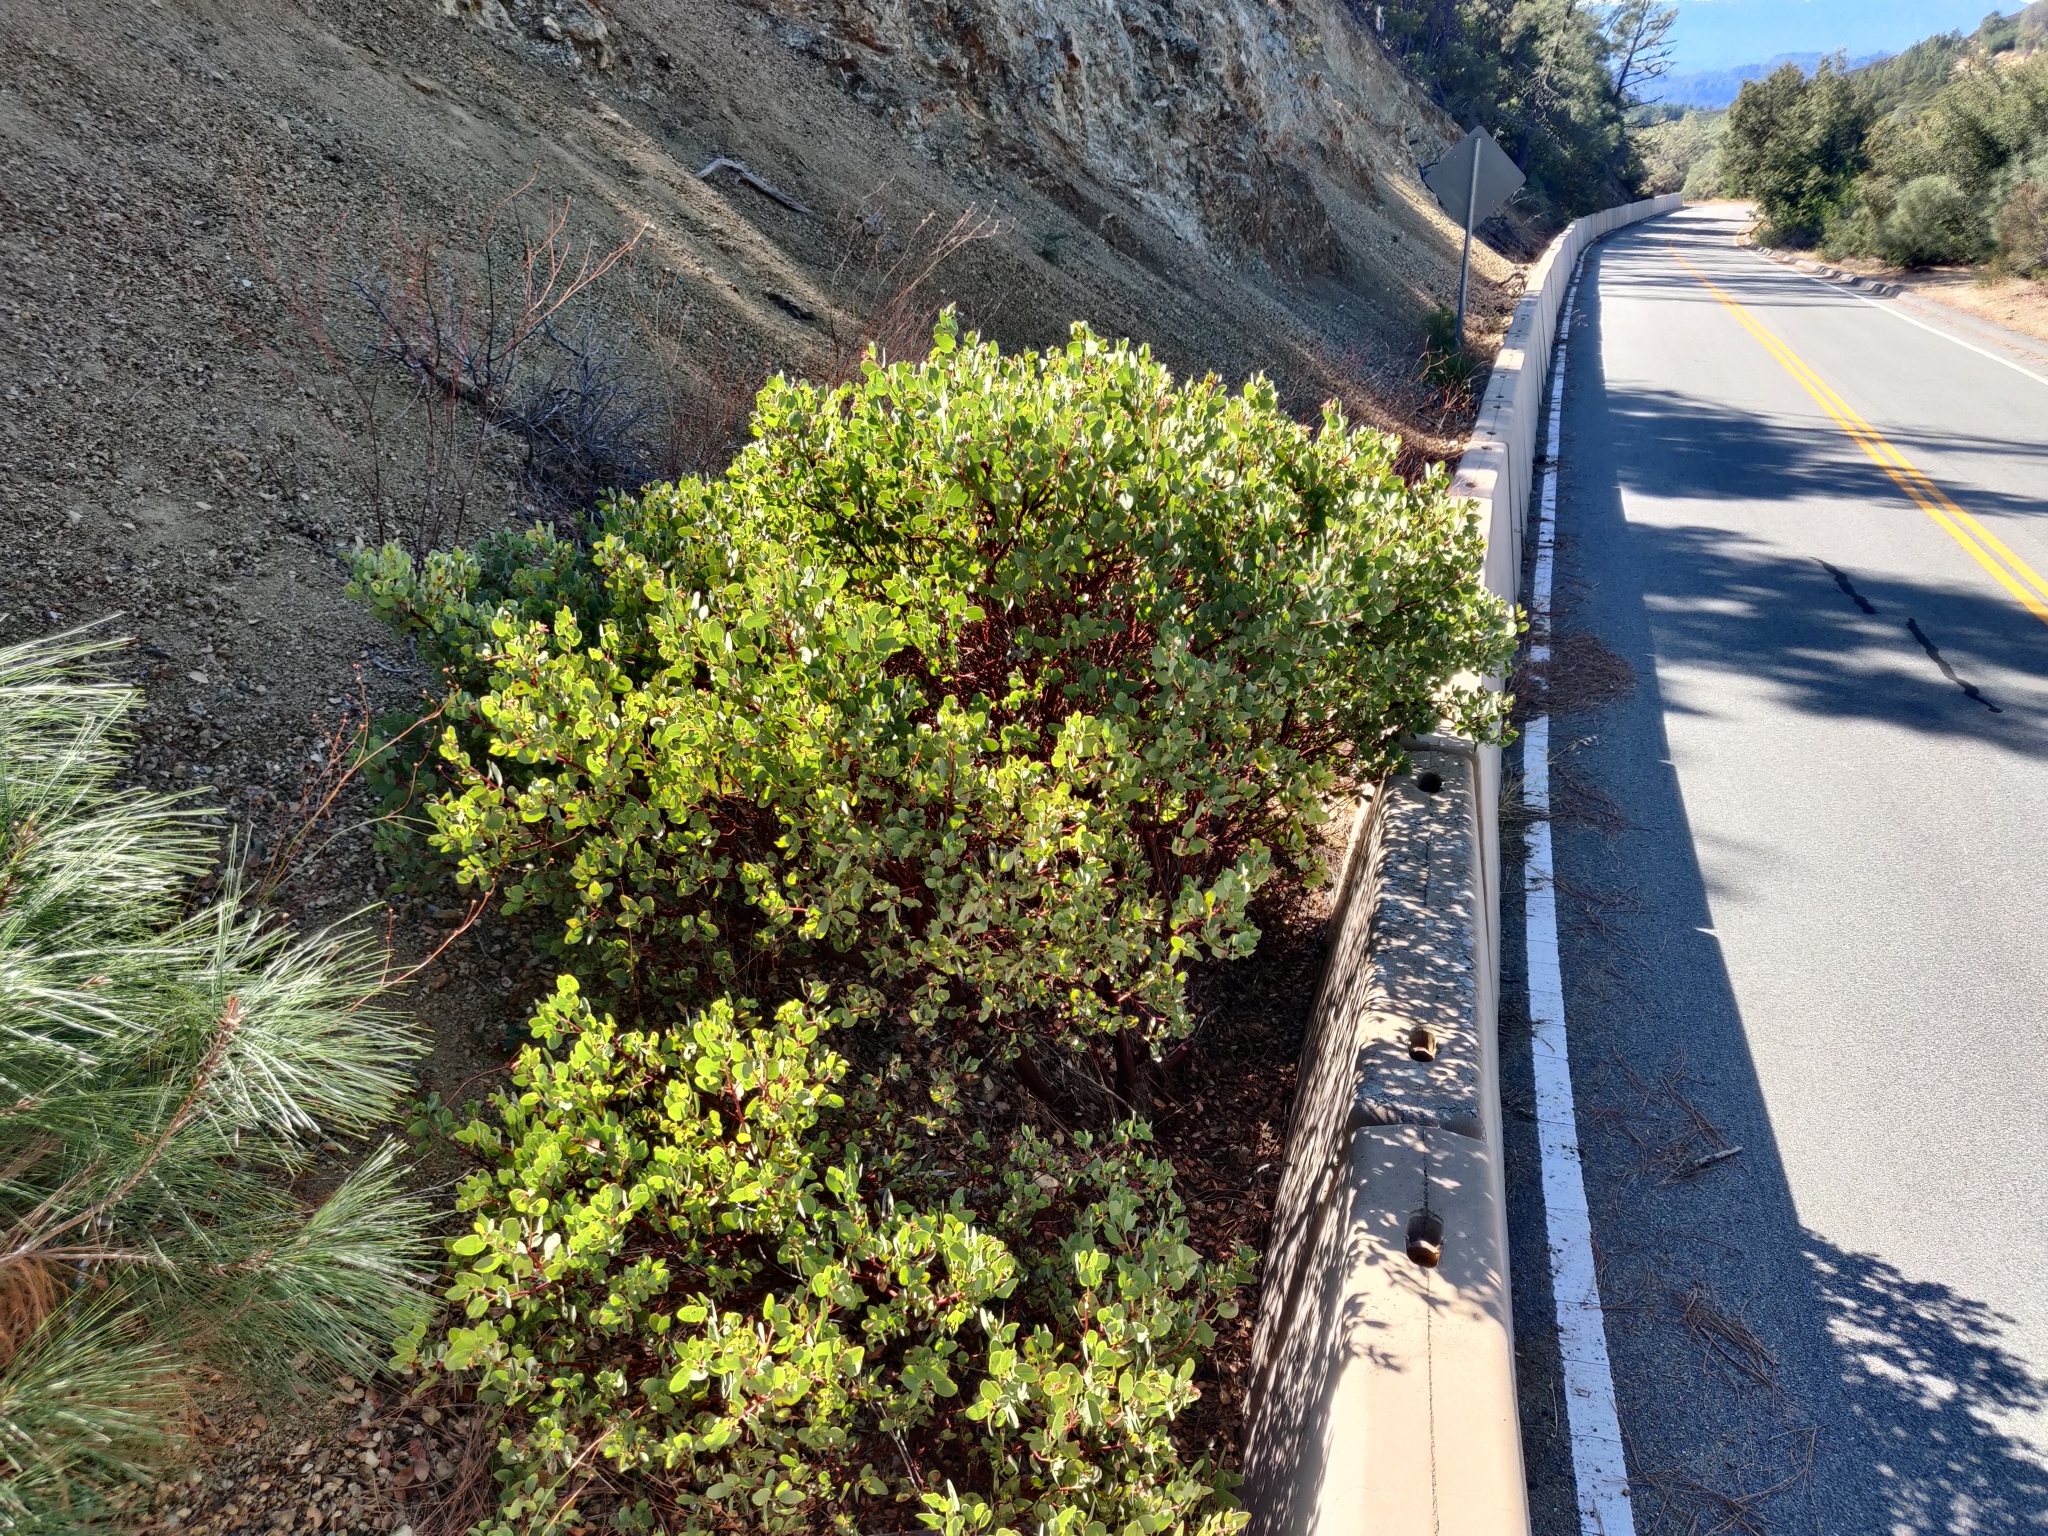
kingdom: Plantae
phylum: Tracheophyta
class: Magnoliopsida
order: Ericales
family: Ericaceae
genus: Arctostaphylos
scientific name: Arctostaphylos glauca
